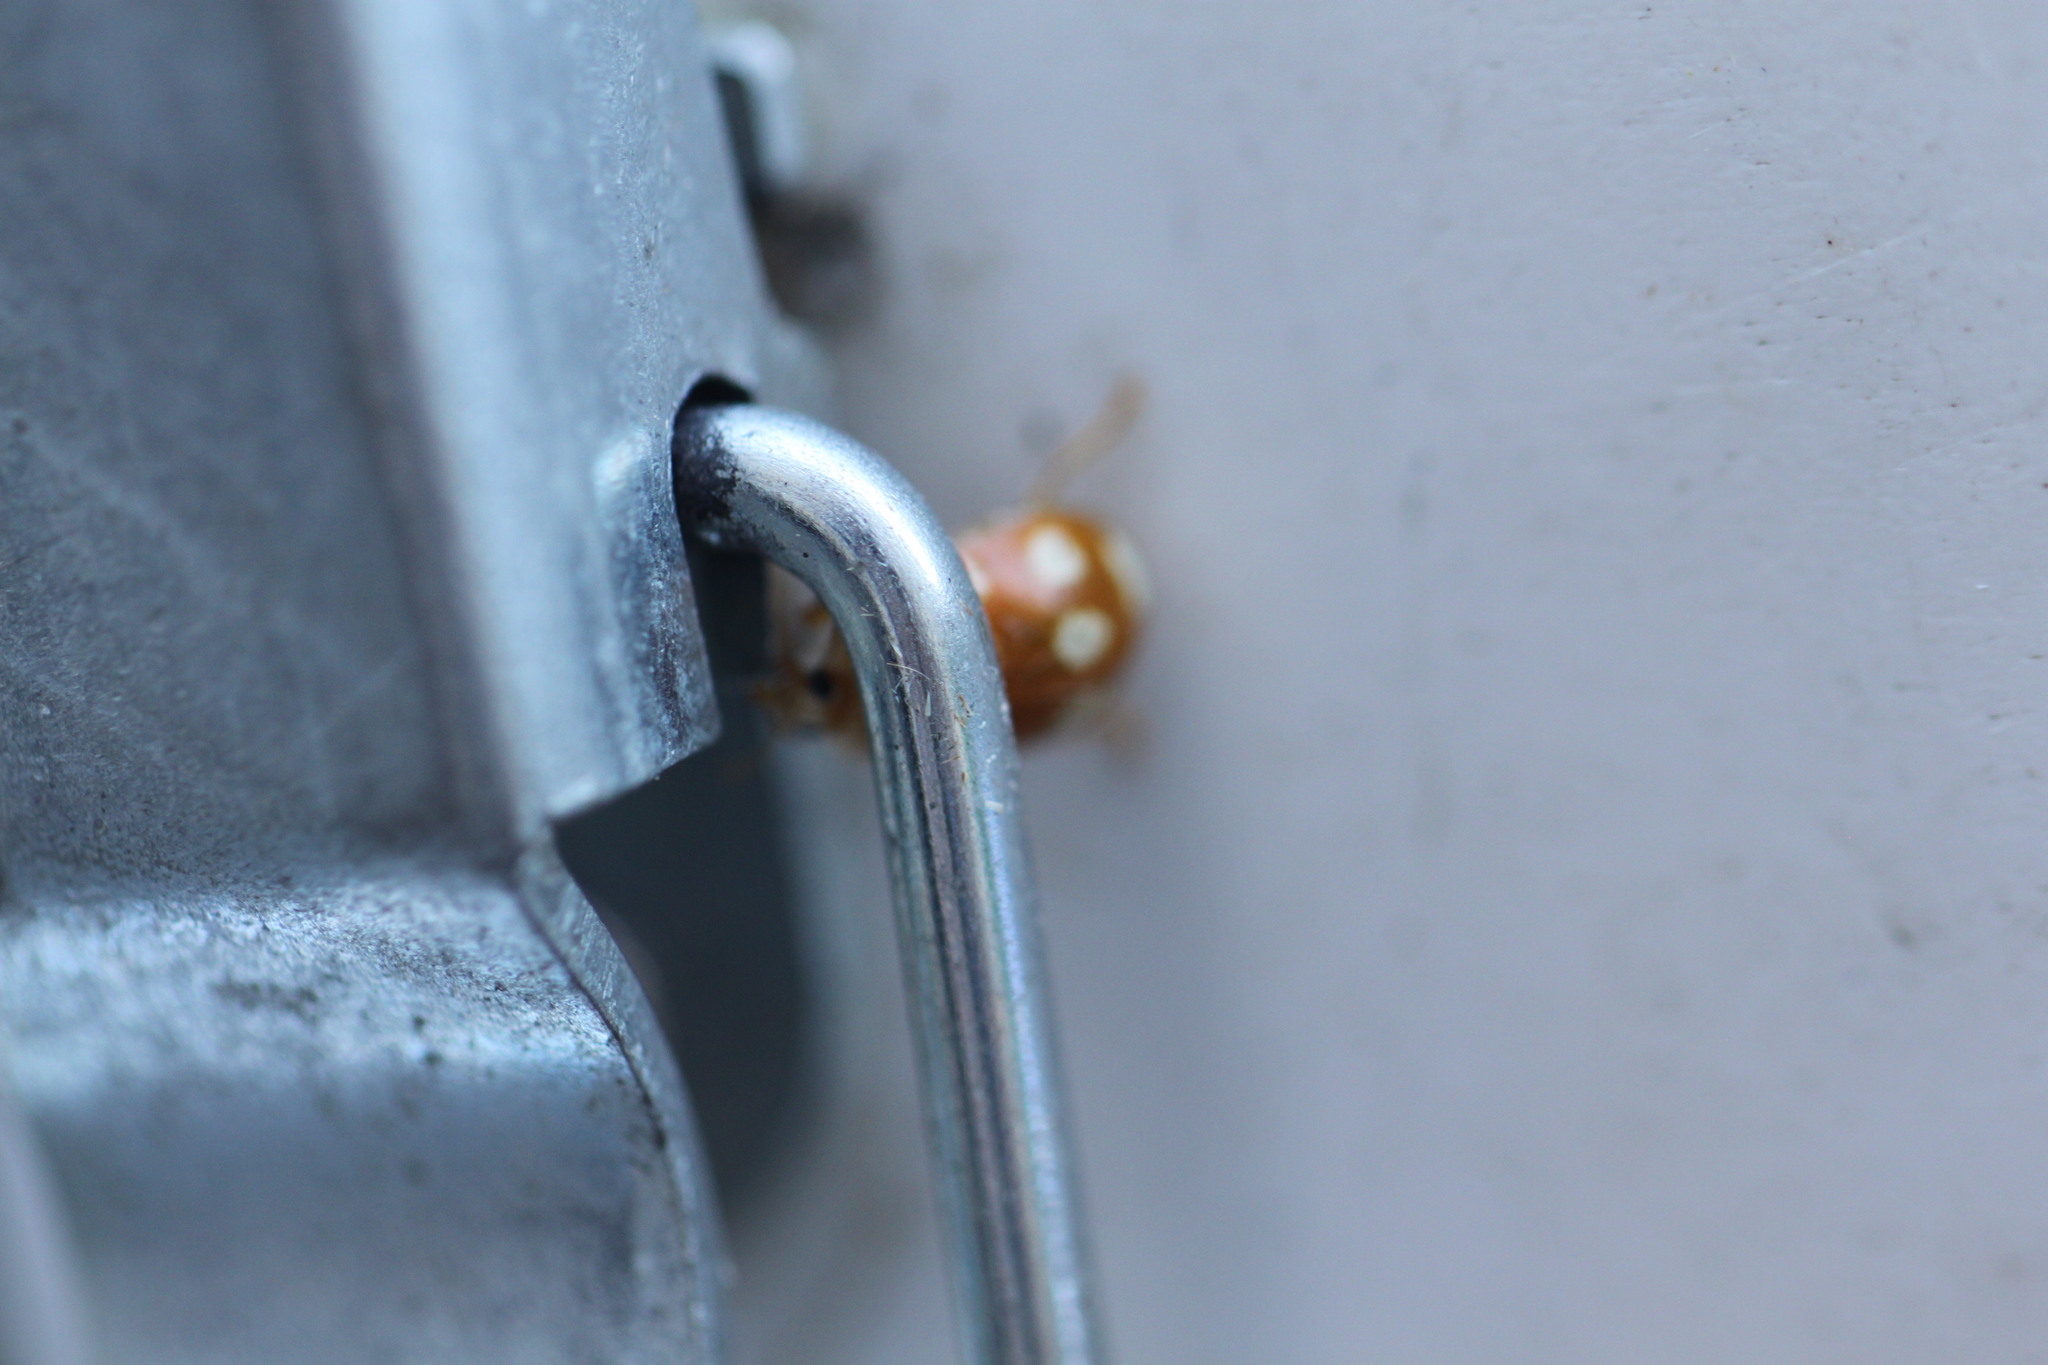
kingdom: Animalia
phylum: Arthropoda
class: Insecta
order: Coleoptera
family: Coccinellidae
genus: Calvia
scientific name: Calvia decemguttata
